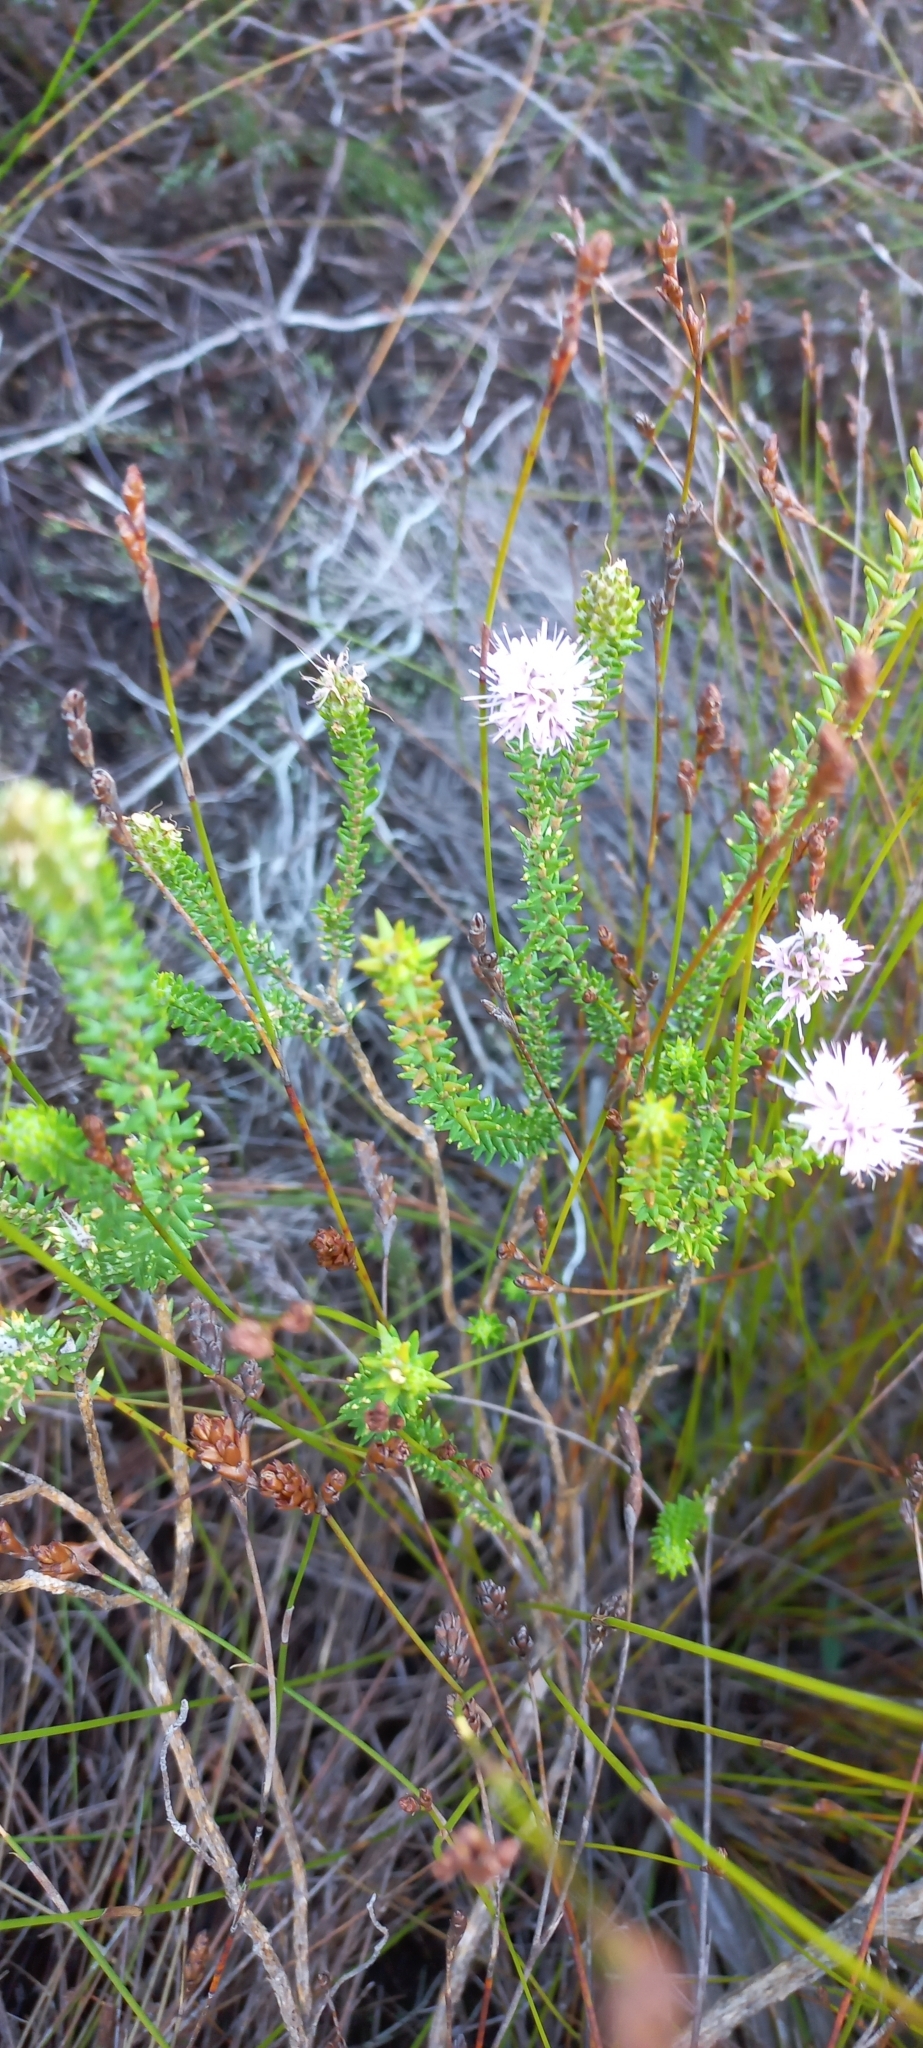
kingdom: Plantae
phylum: Tracheophyta
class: Magnoliopsida
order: Lamiales
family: Stilbaceae
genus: Stilbe
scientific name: Stilbe ericoides
